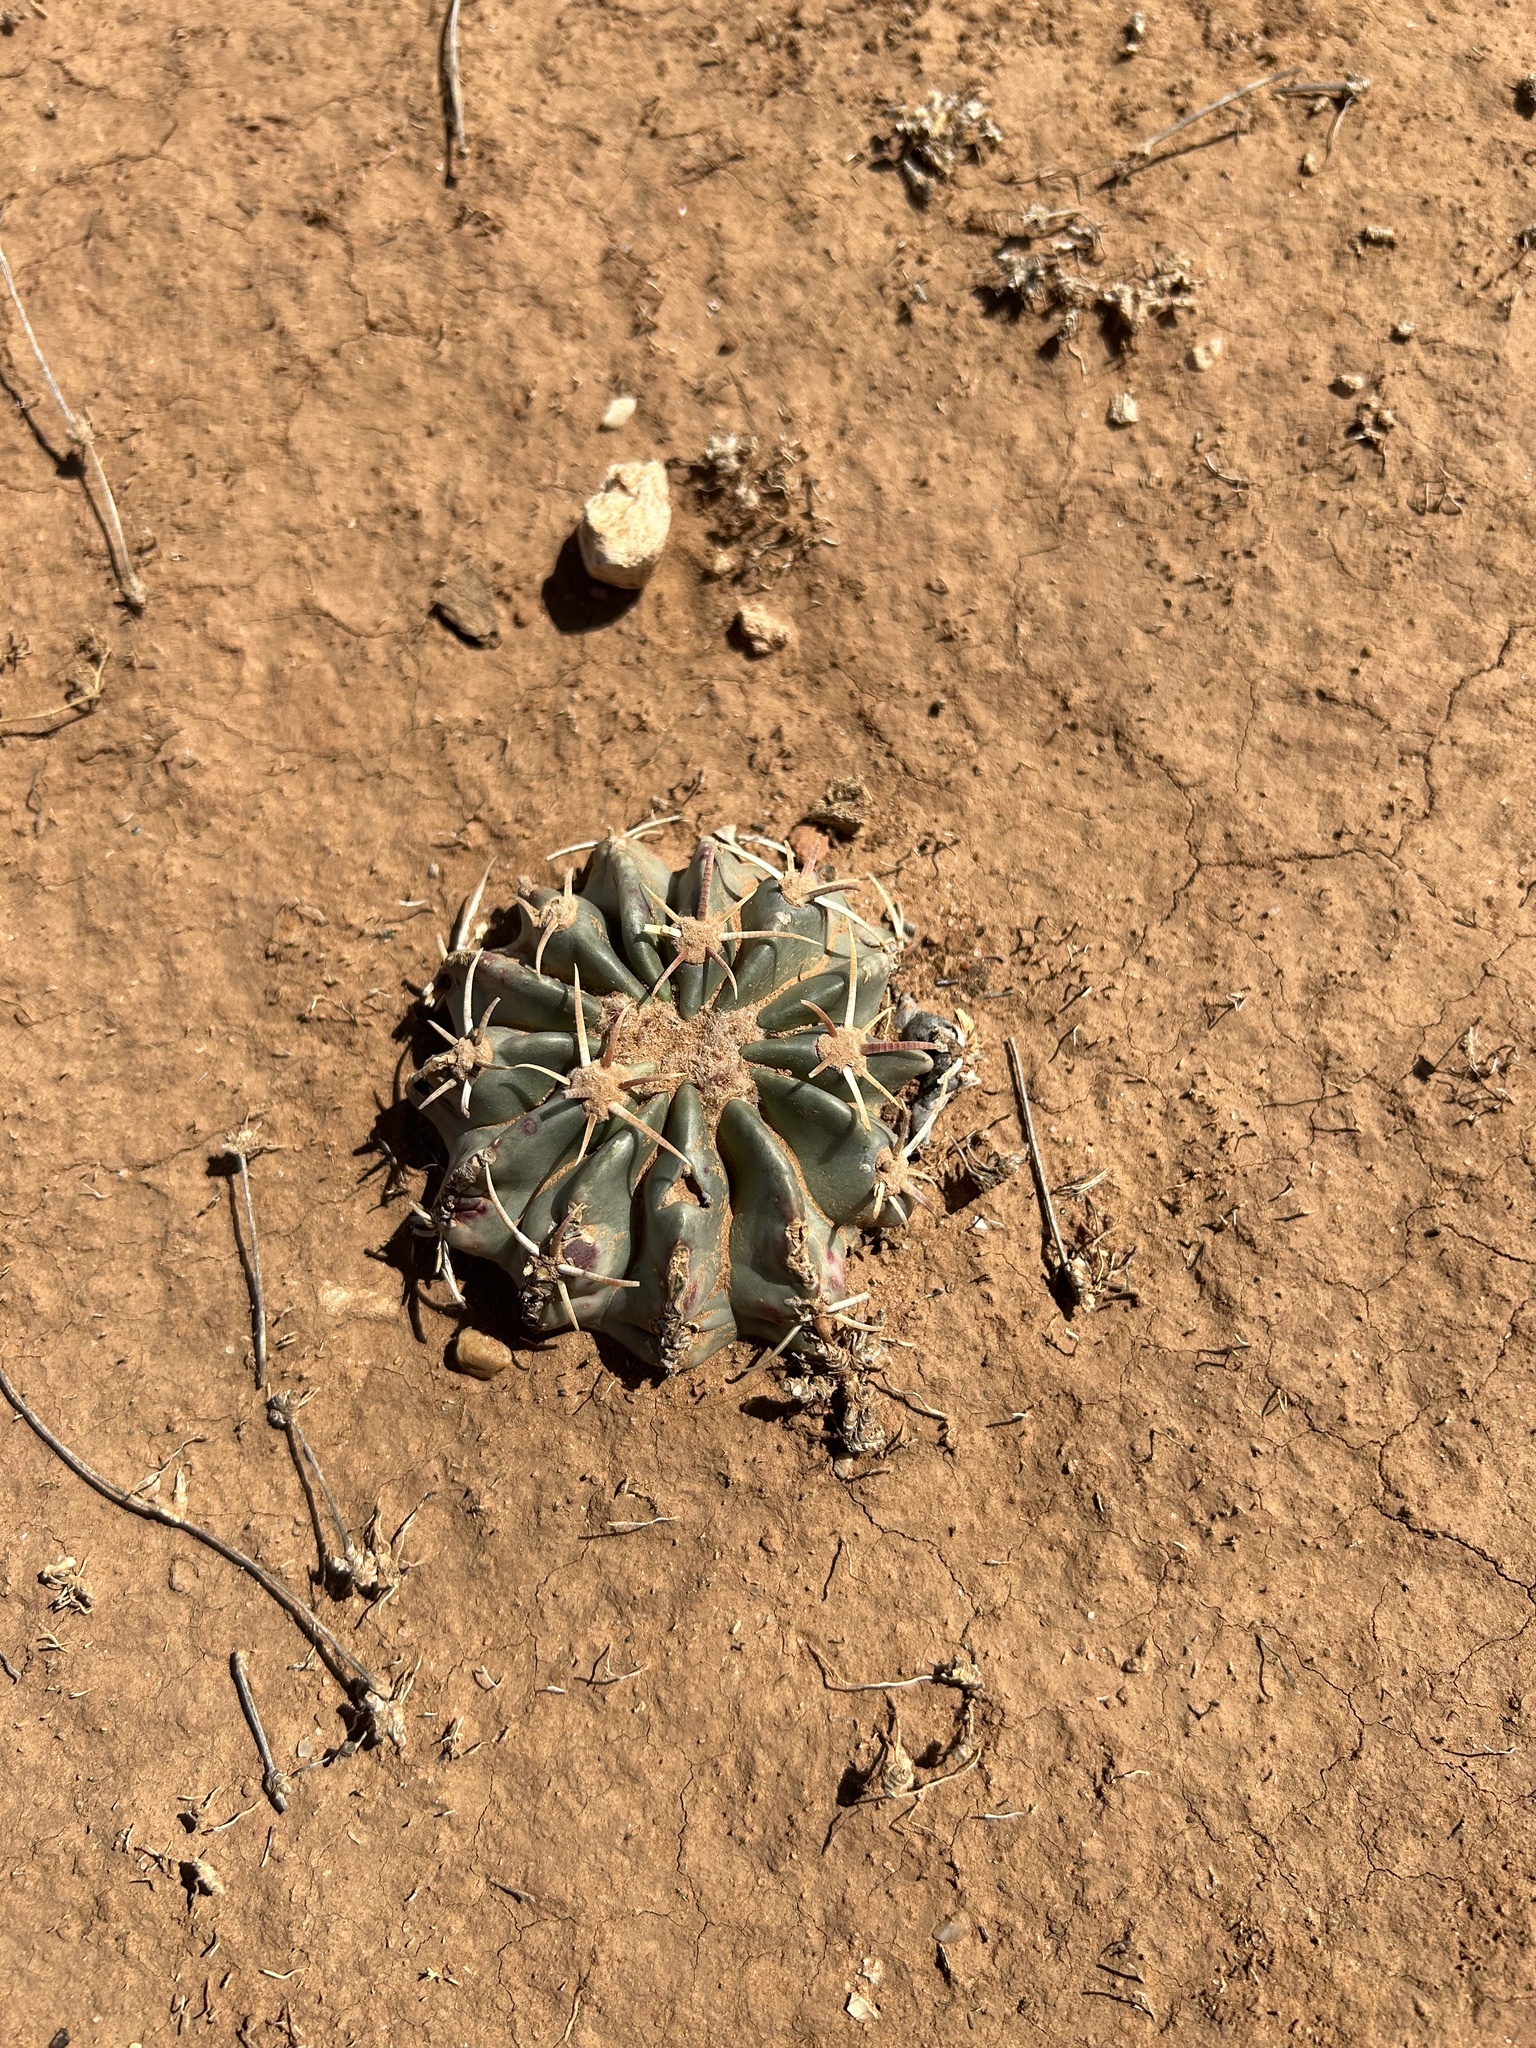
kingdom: Plantae
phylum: Tracheophyta
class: Magnoliopsida
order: Caryophyllales
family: Cactaceae
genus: Echinocactus
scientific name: Echinocactus texensis
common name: Devil's pincushion
